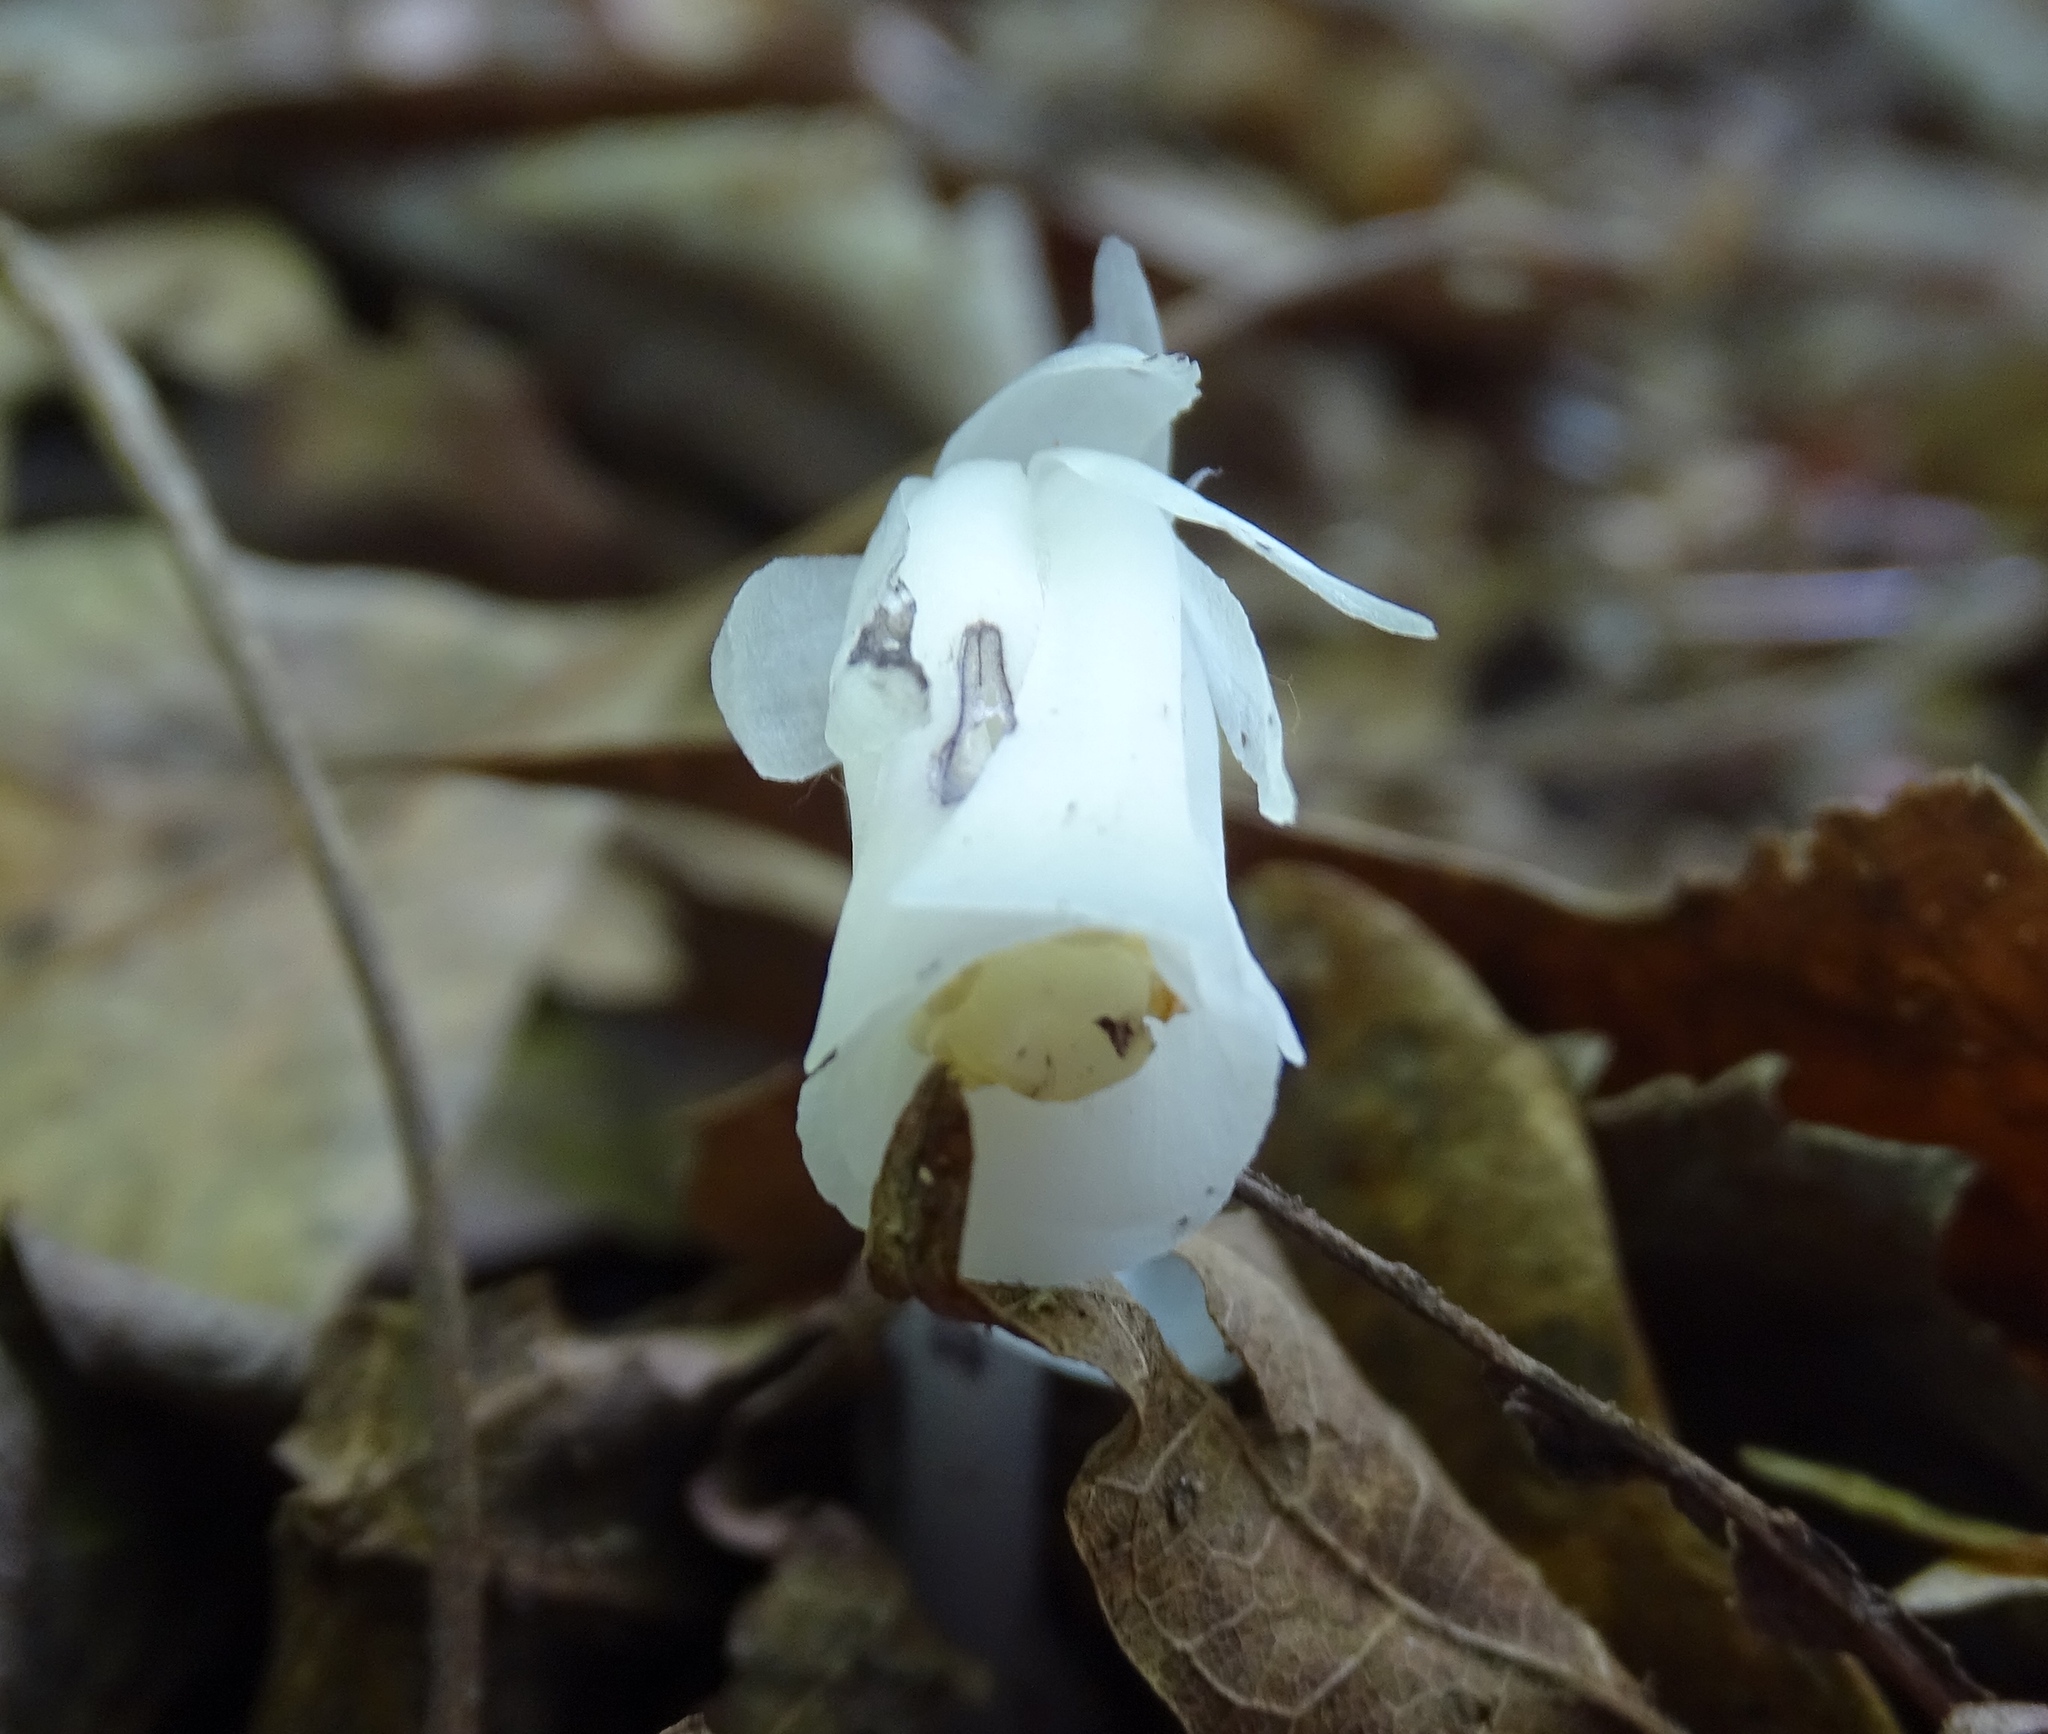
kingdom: Plantae
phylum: Tracheophyta
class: Magnoliopsida
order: Ericales
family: Ericaceae
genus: Monotropa
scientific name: Monotropa uniflora
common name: Convulsion root
